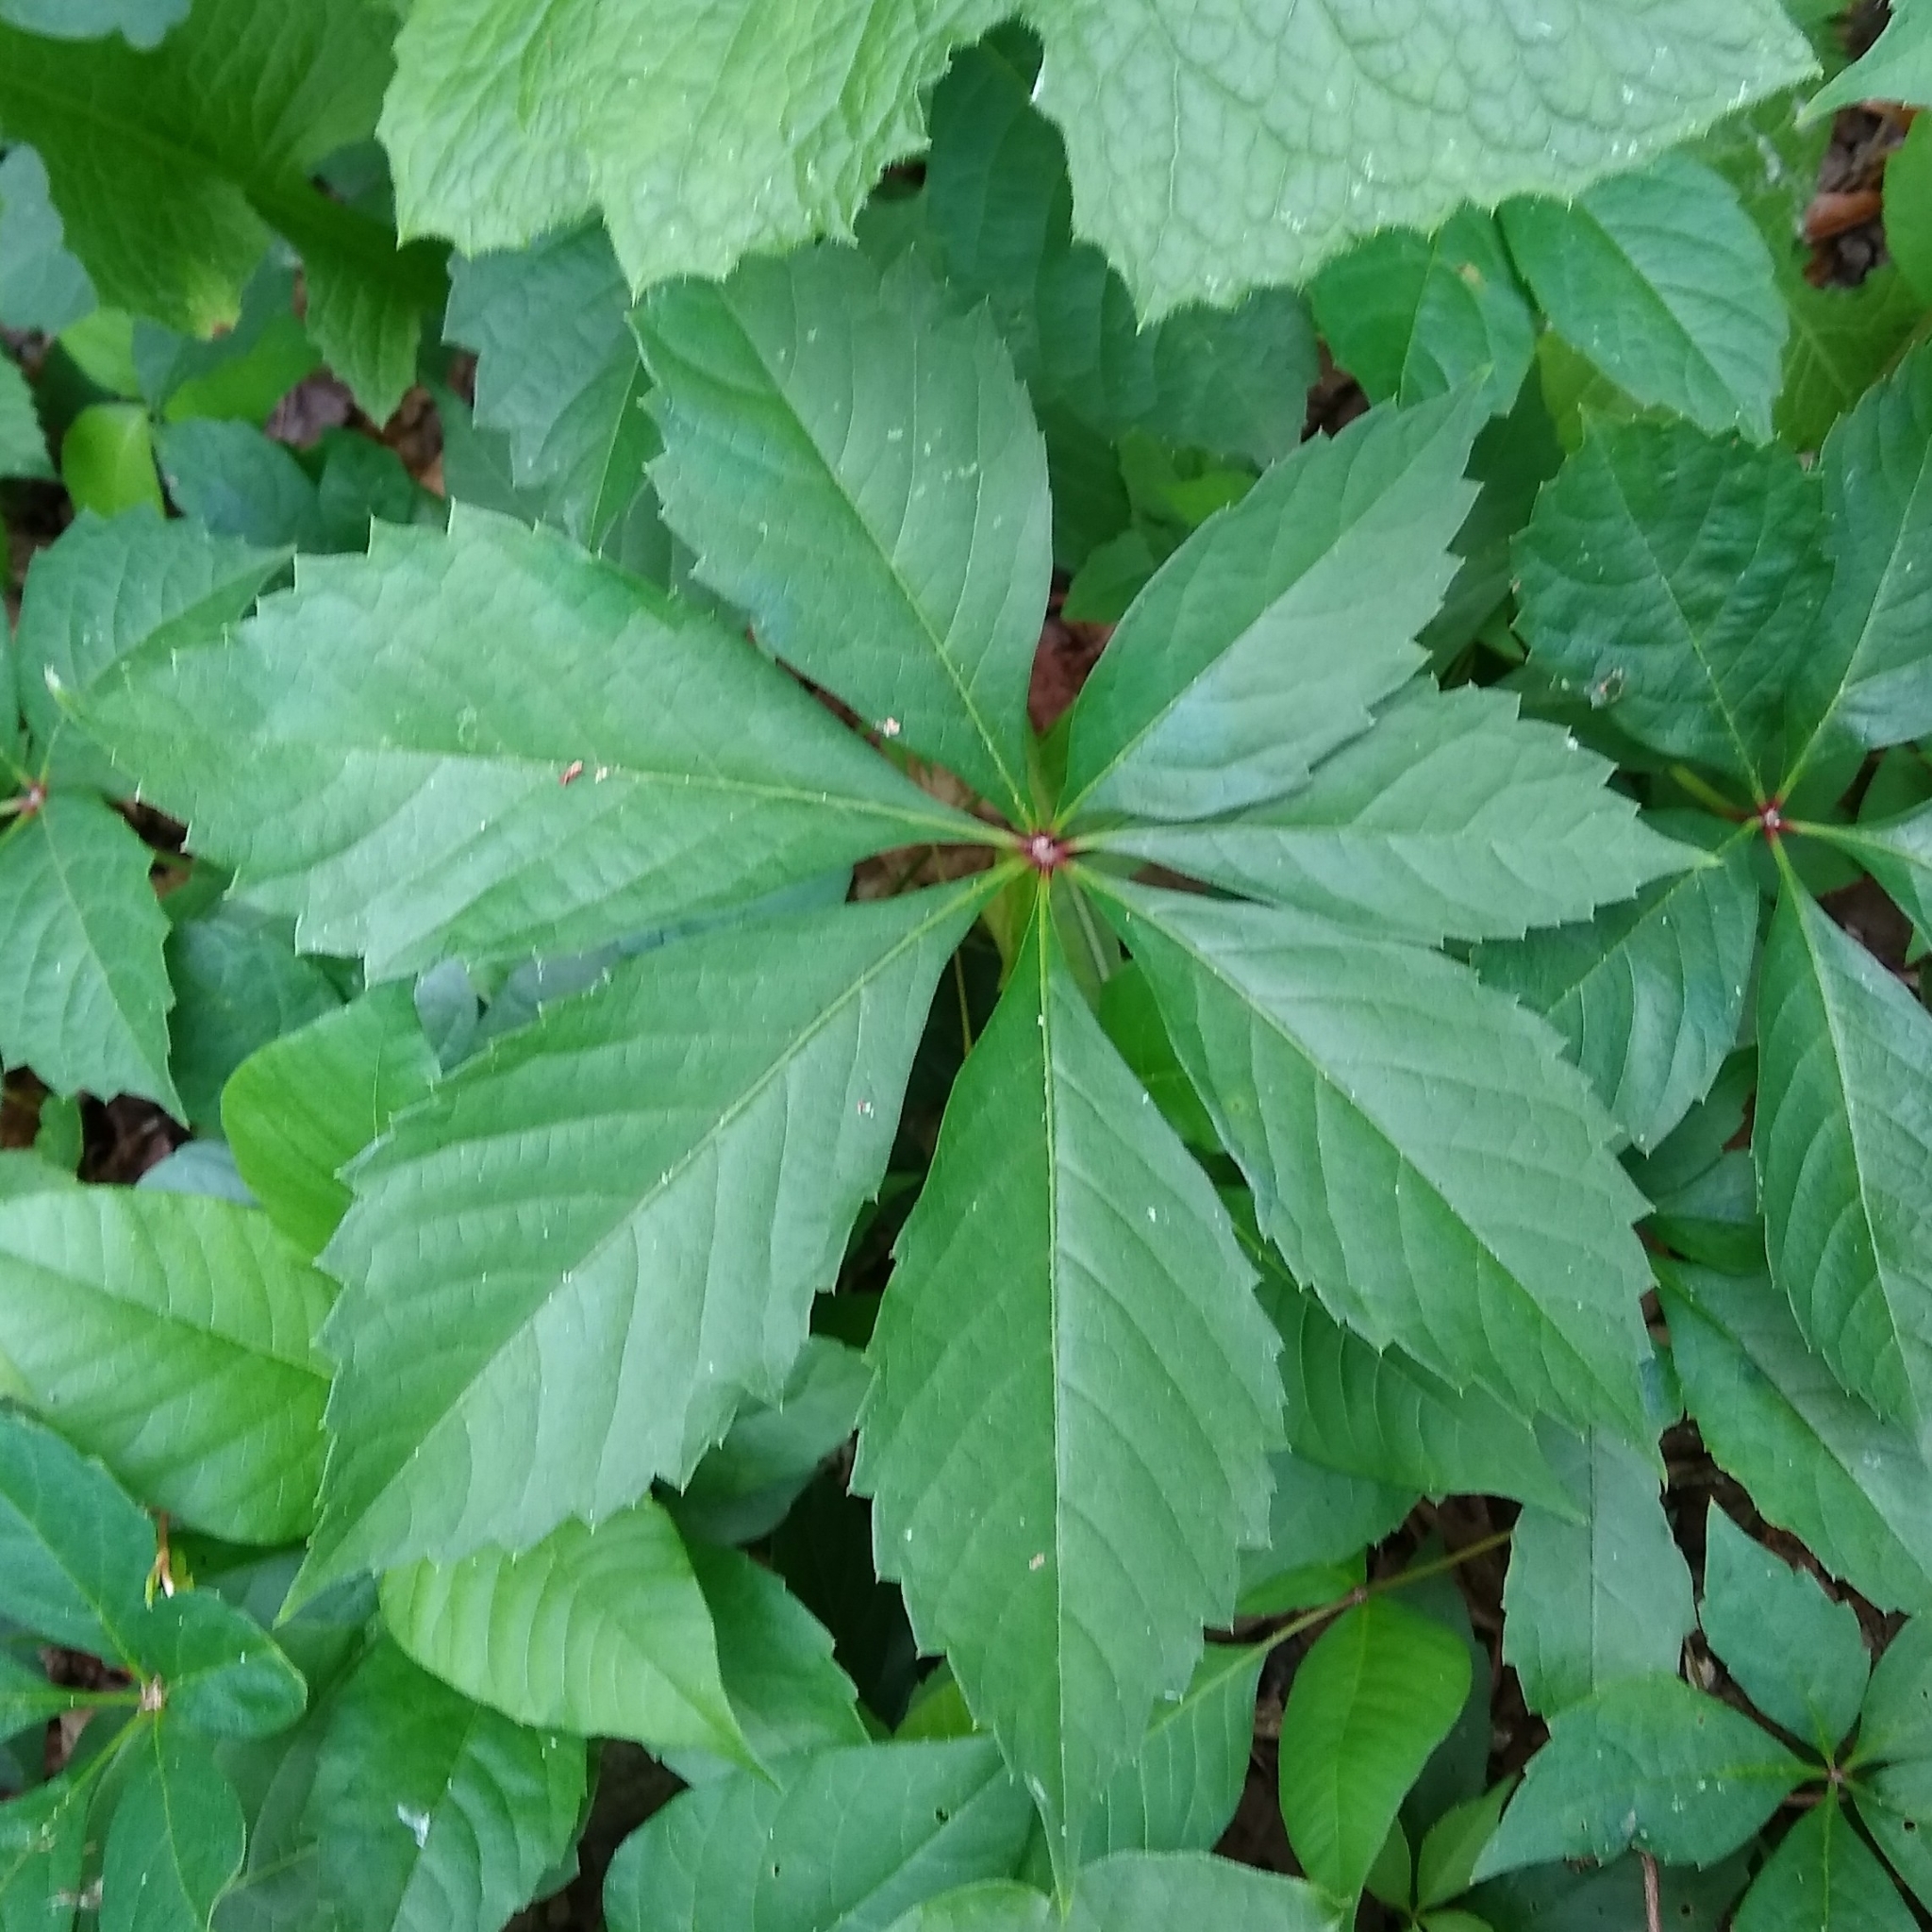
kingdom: Plantae
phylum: Tracheophyta
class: Magnoliopsida
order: Vitales
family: Vitaceae
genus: Parthenocissus
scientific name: Parthenocissus quinquefolia
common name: Virginia-creeper
